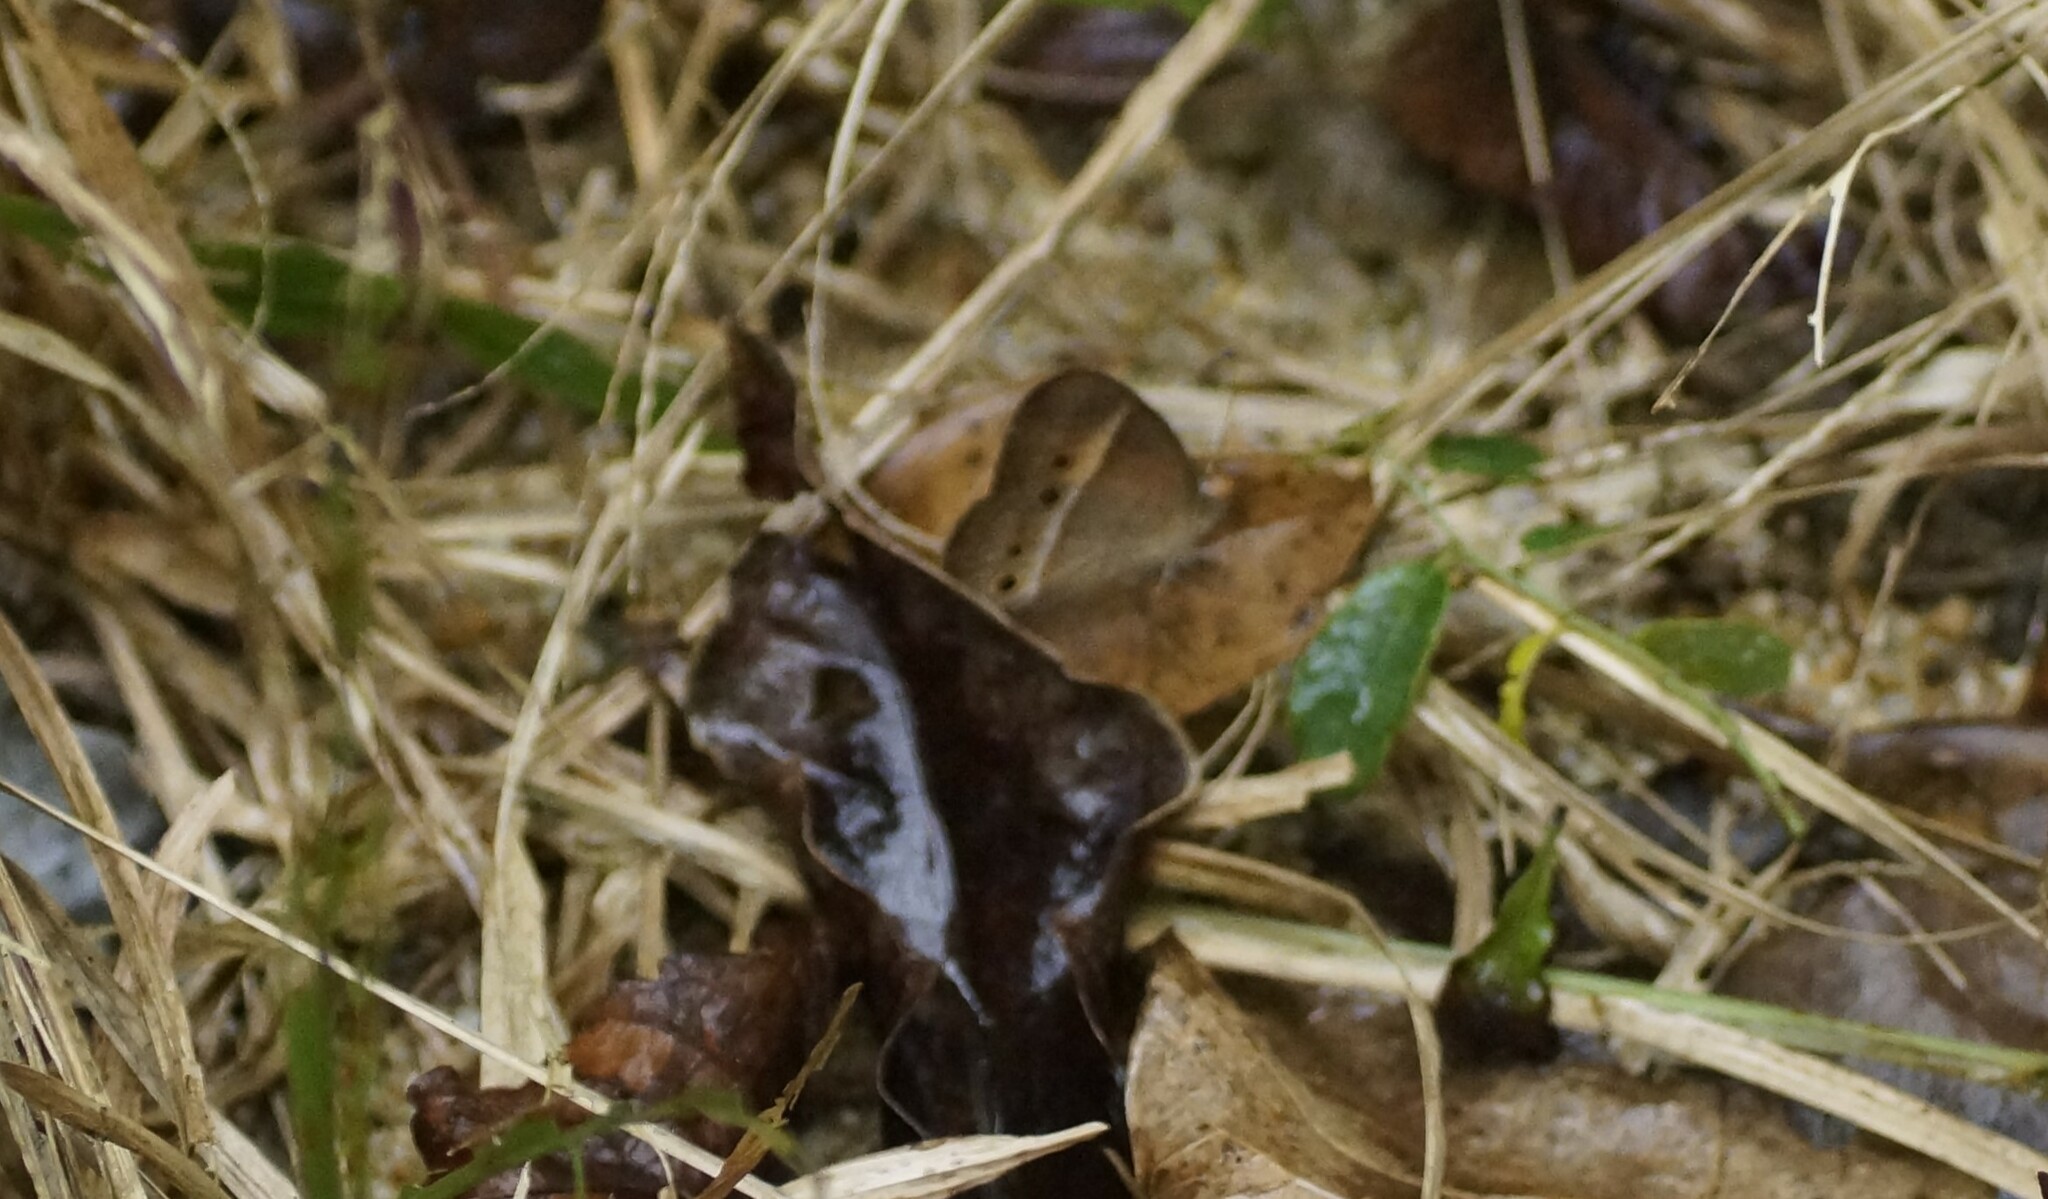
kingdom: Animalia
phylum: Arthropoda
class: Insecta
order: Lepidoptera
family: Nymphalidae
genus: Mycalesis
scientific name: Mycalesis terminus
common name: Orange bushbrown
